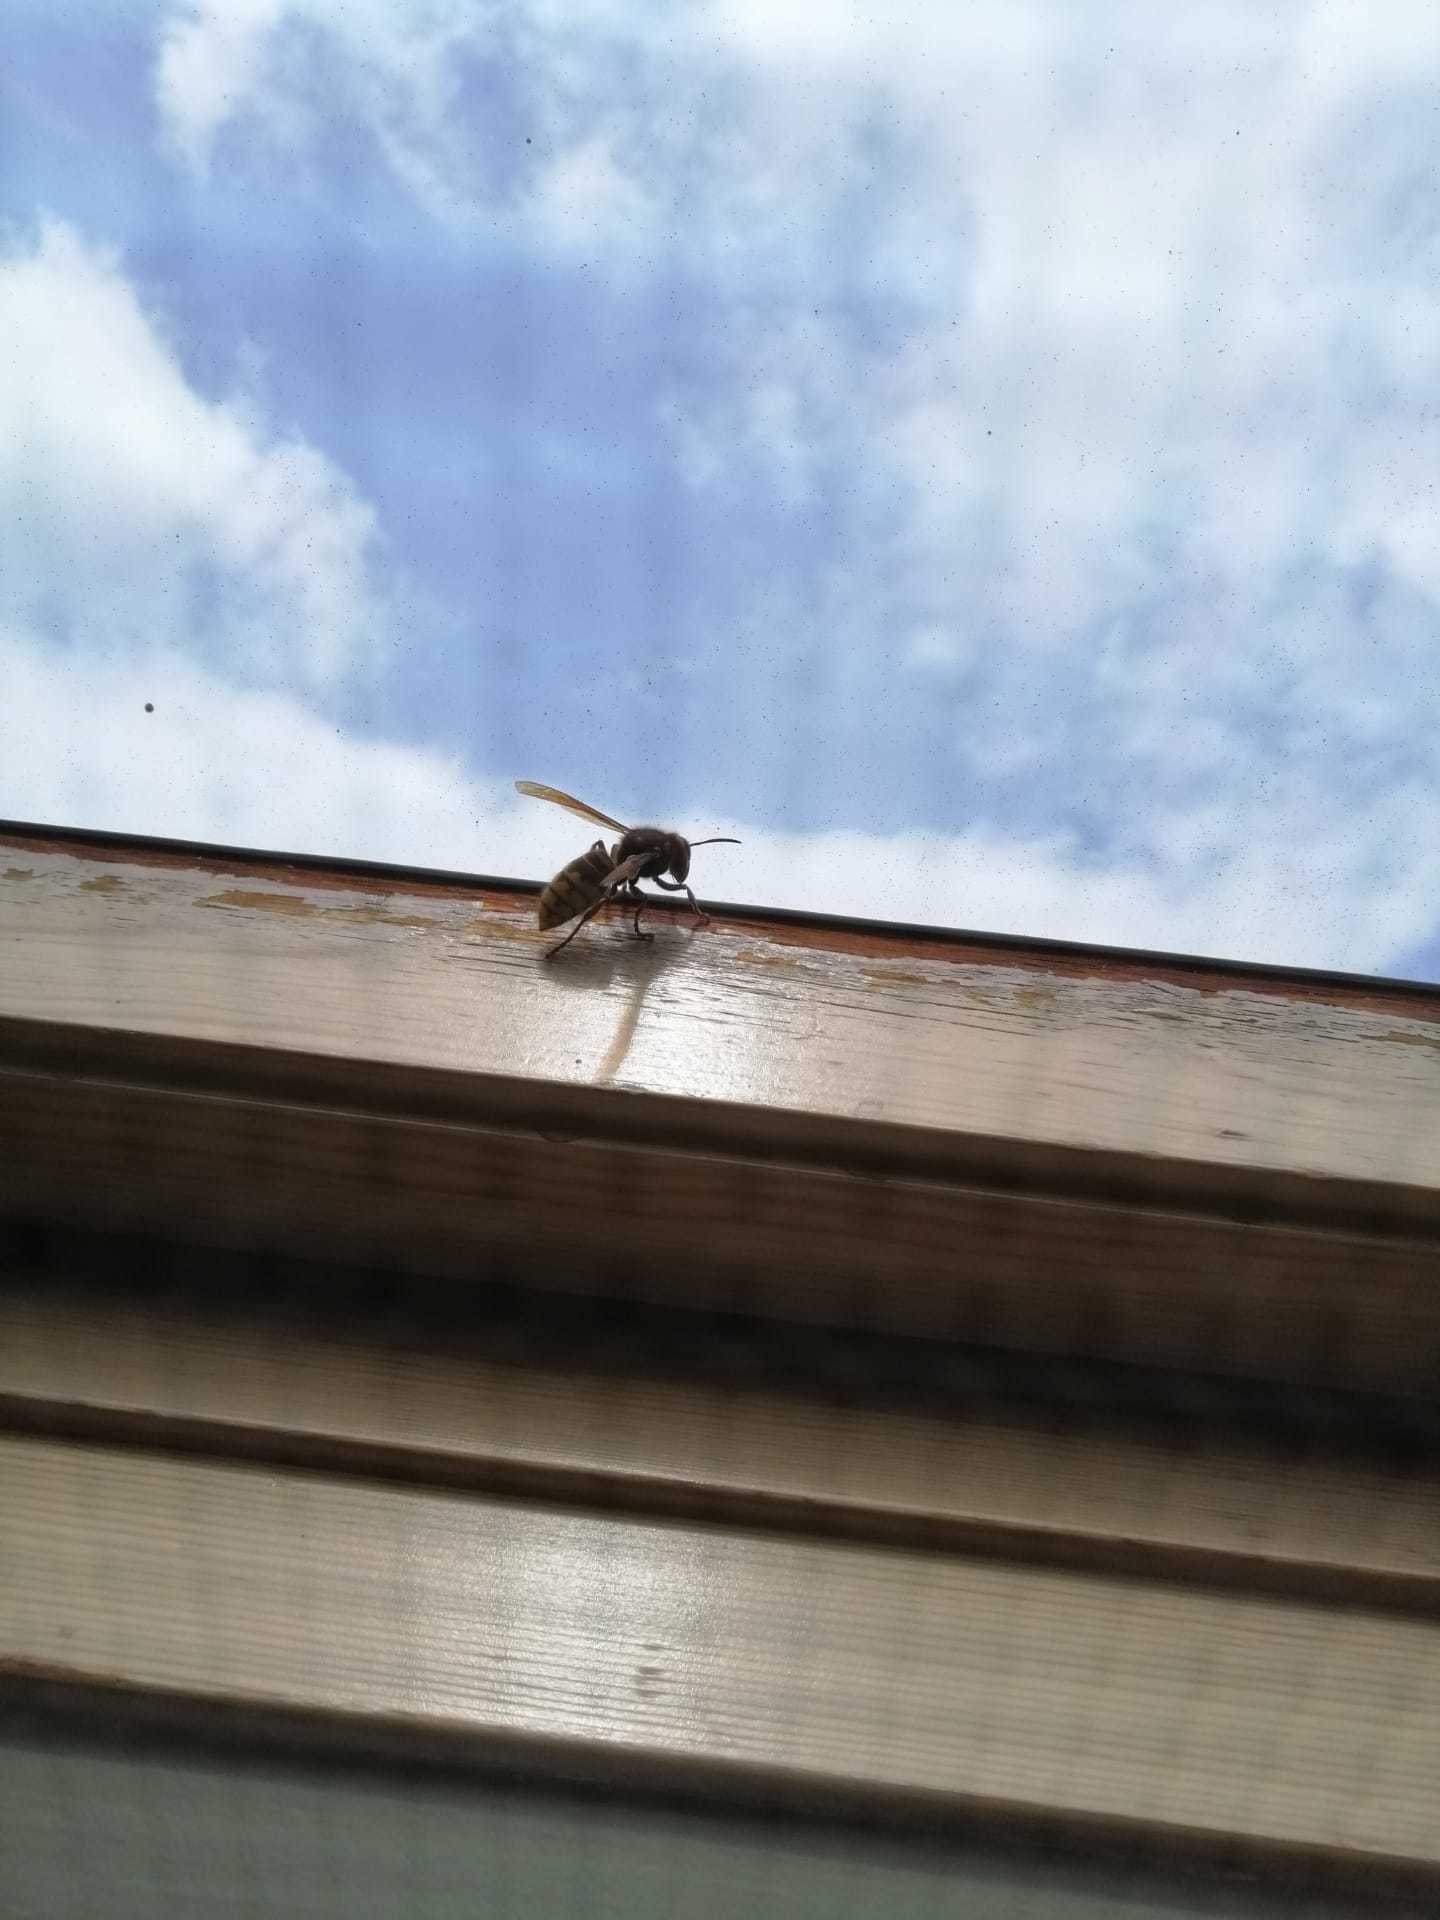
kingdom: Animalia
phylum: Arthropoda
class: Insecta
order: Hymenoptera
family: Vespidae
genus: Vespa
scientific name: Vespa crabro
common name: Hornet
